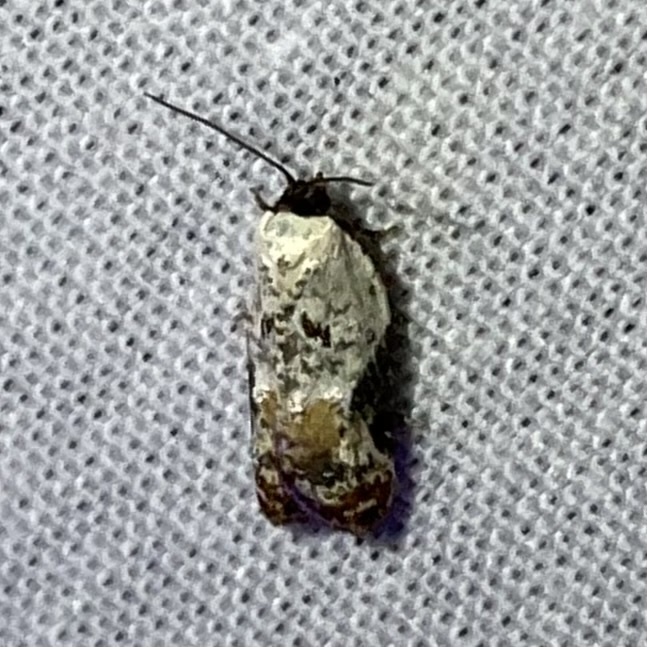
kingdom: Animalia
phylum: Arthropoda
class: Insecta
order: Lepidoptera
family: Tortricidae
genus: Acleris
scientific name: Acleris nivisellana
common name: Snowy-shouldered acleris moth
